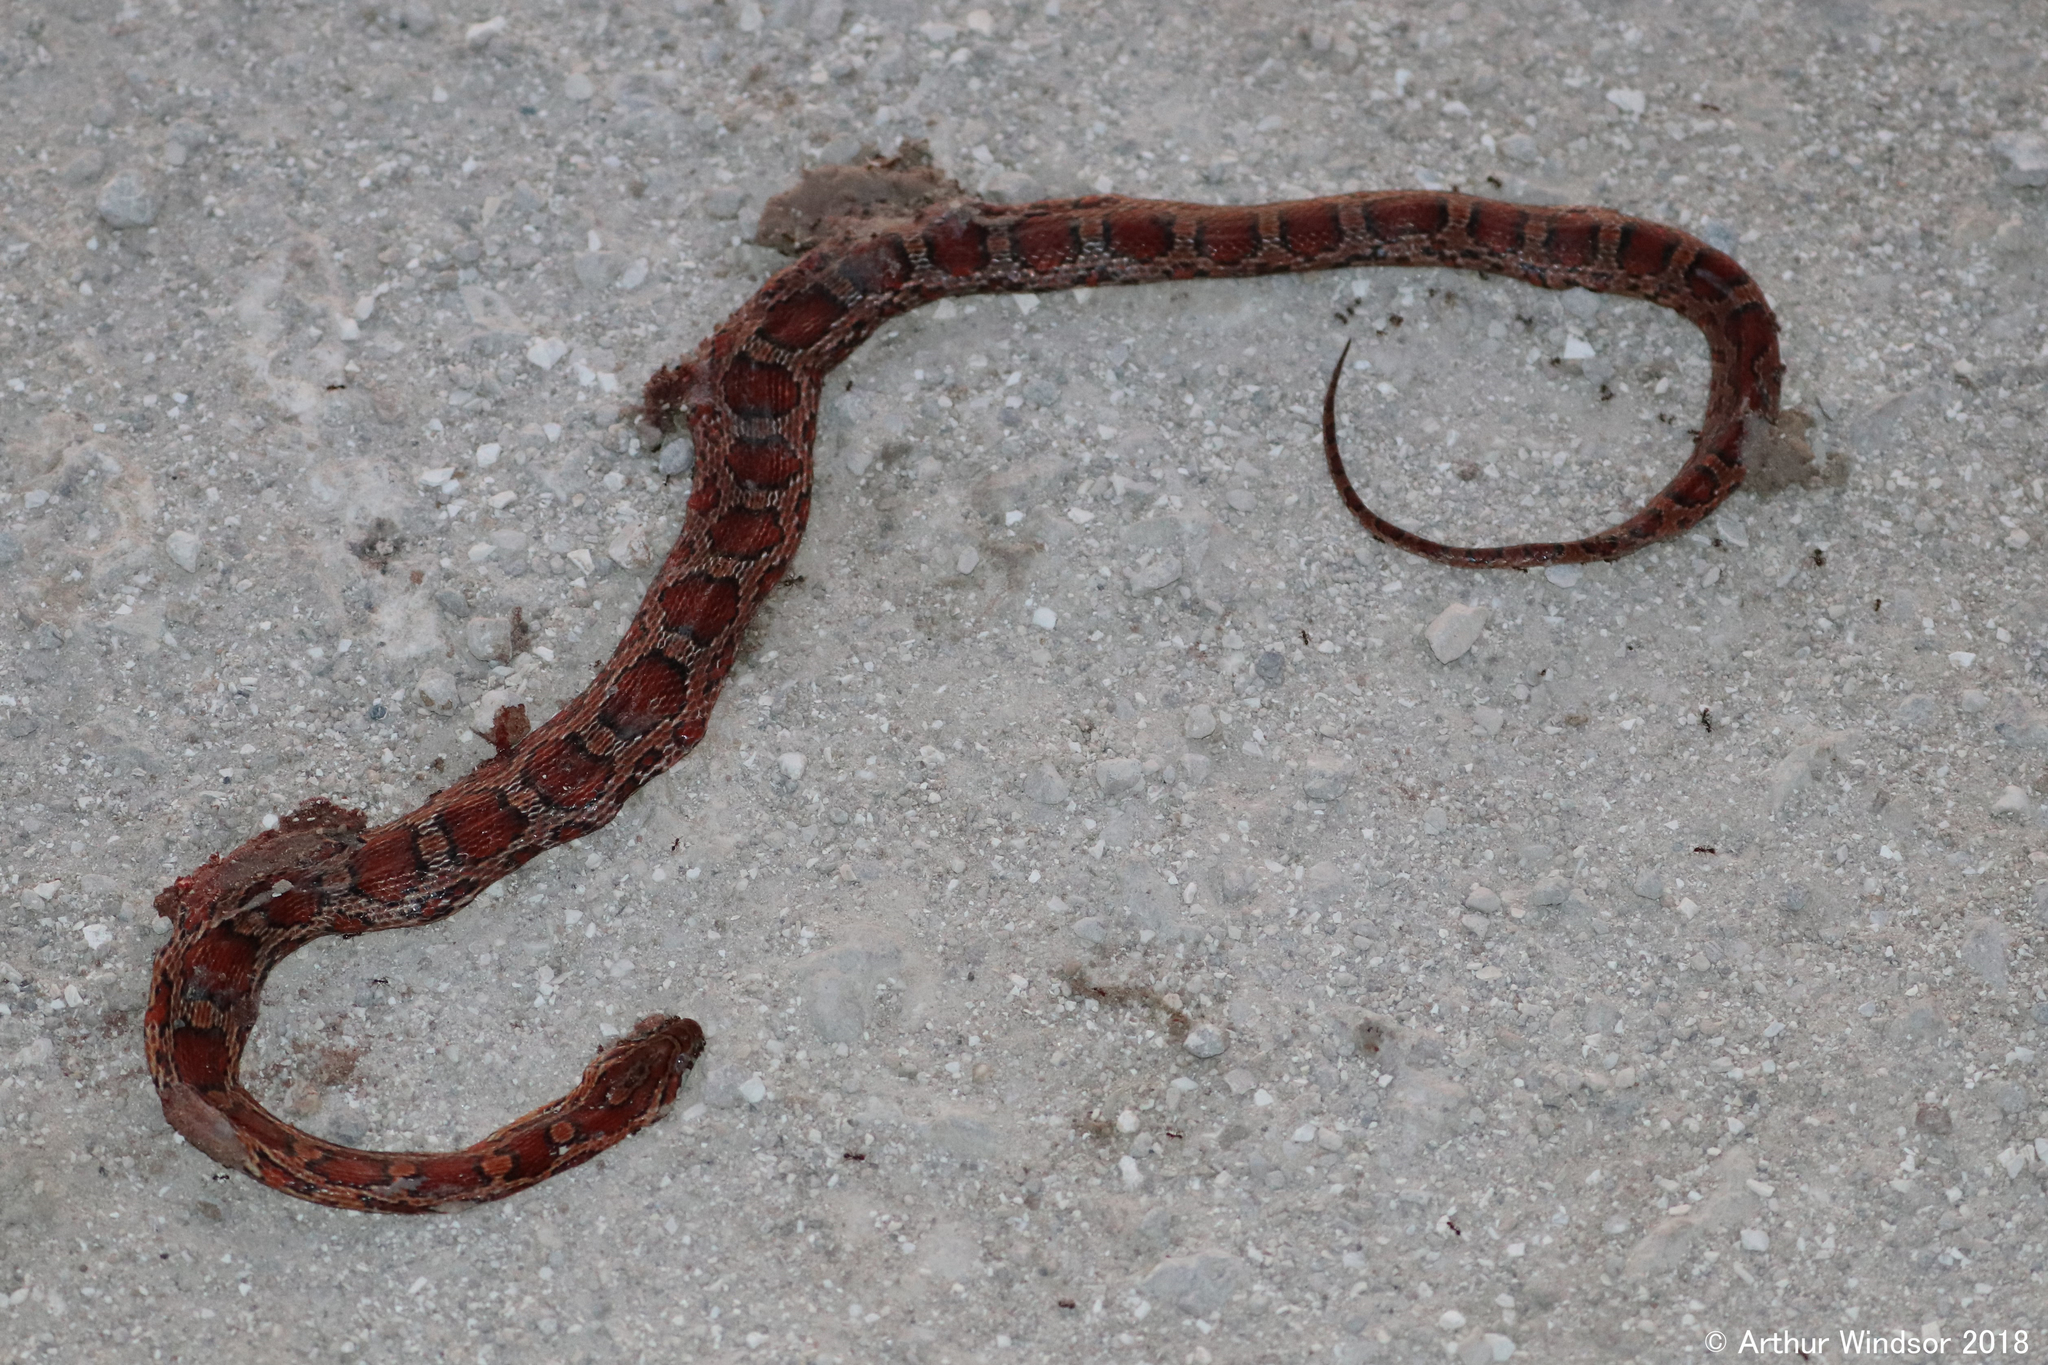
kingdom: Animalia
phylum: Chordata
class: Squamata
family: Colubridae
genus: Pantherophis
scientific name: Pantherophis guttatus
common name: Red cornsnake
